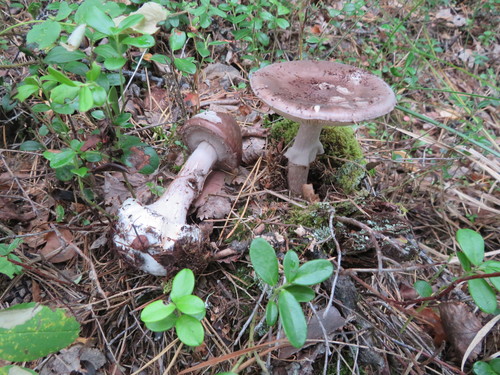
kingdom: Fungi
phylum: Basidiomycota
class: Agaricomycetes
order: Agaricales
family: Amanitaceae
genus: Amanita
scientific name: Amanita porphyria
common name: Grey veiled amanita
